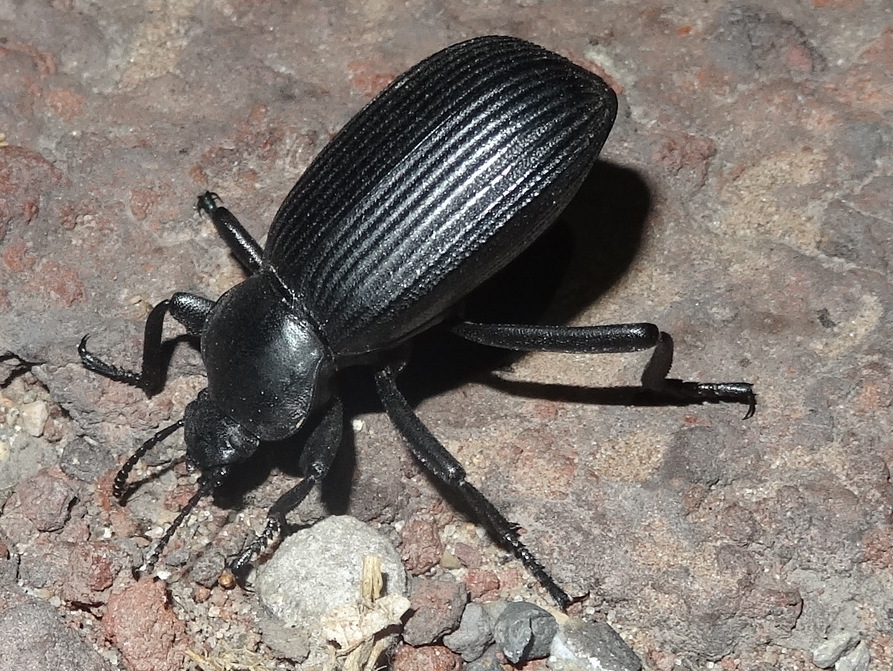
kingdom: Animalia
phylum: Arthropoda
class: Insecta
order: Coleoptera
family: Tenebrionidae
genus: Eleodes
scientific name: Eleodes obscura
